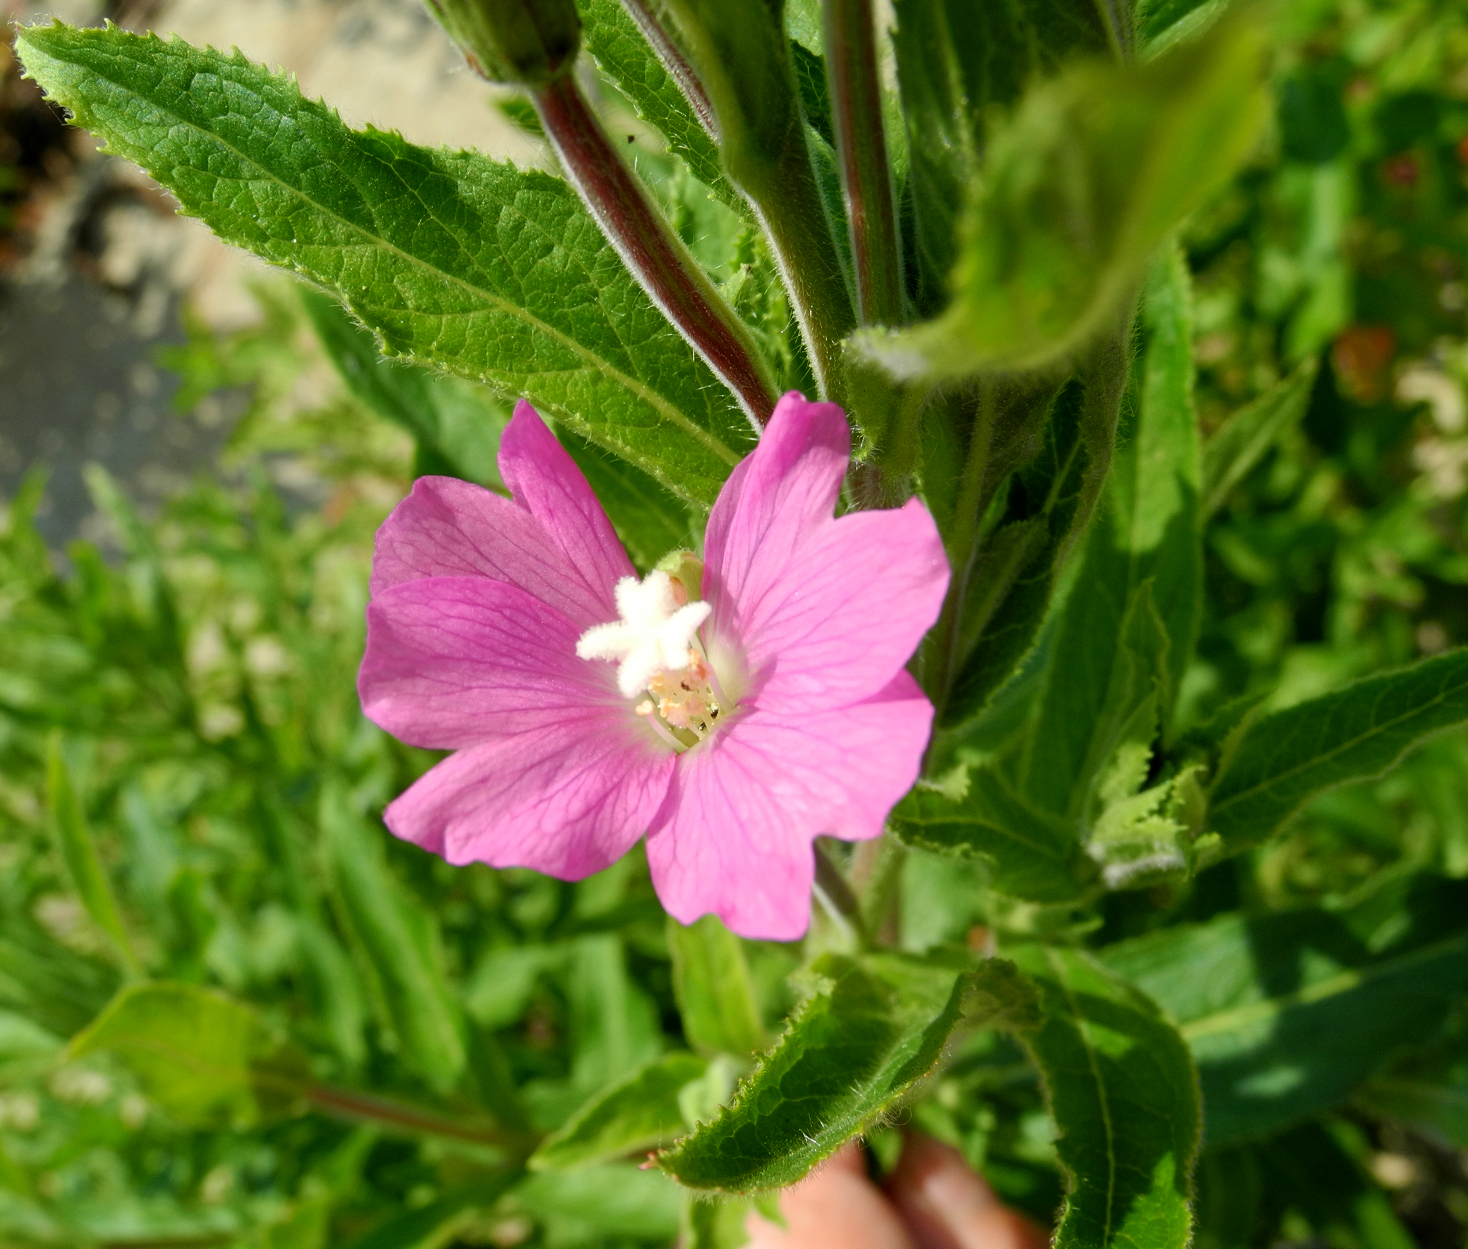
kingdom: Plantae
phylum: Tracheophyta
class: Magnoliopsida
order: Myrtales
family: Onagraceae
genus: Epilobium
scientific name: Epilobium hirsutum
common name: Great willowherb
